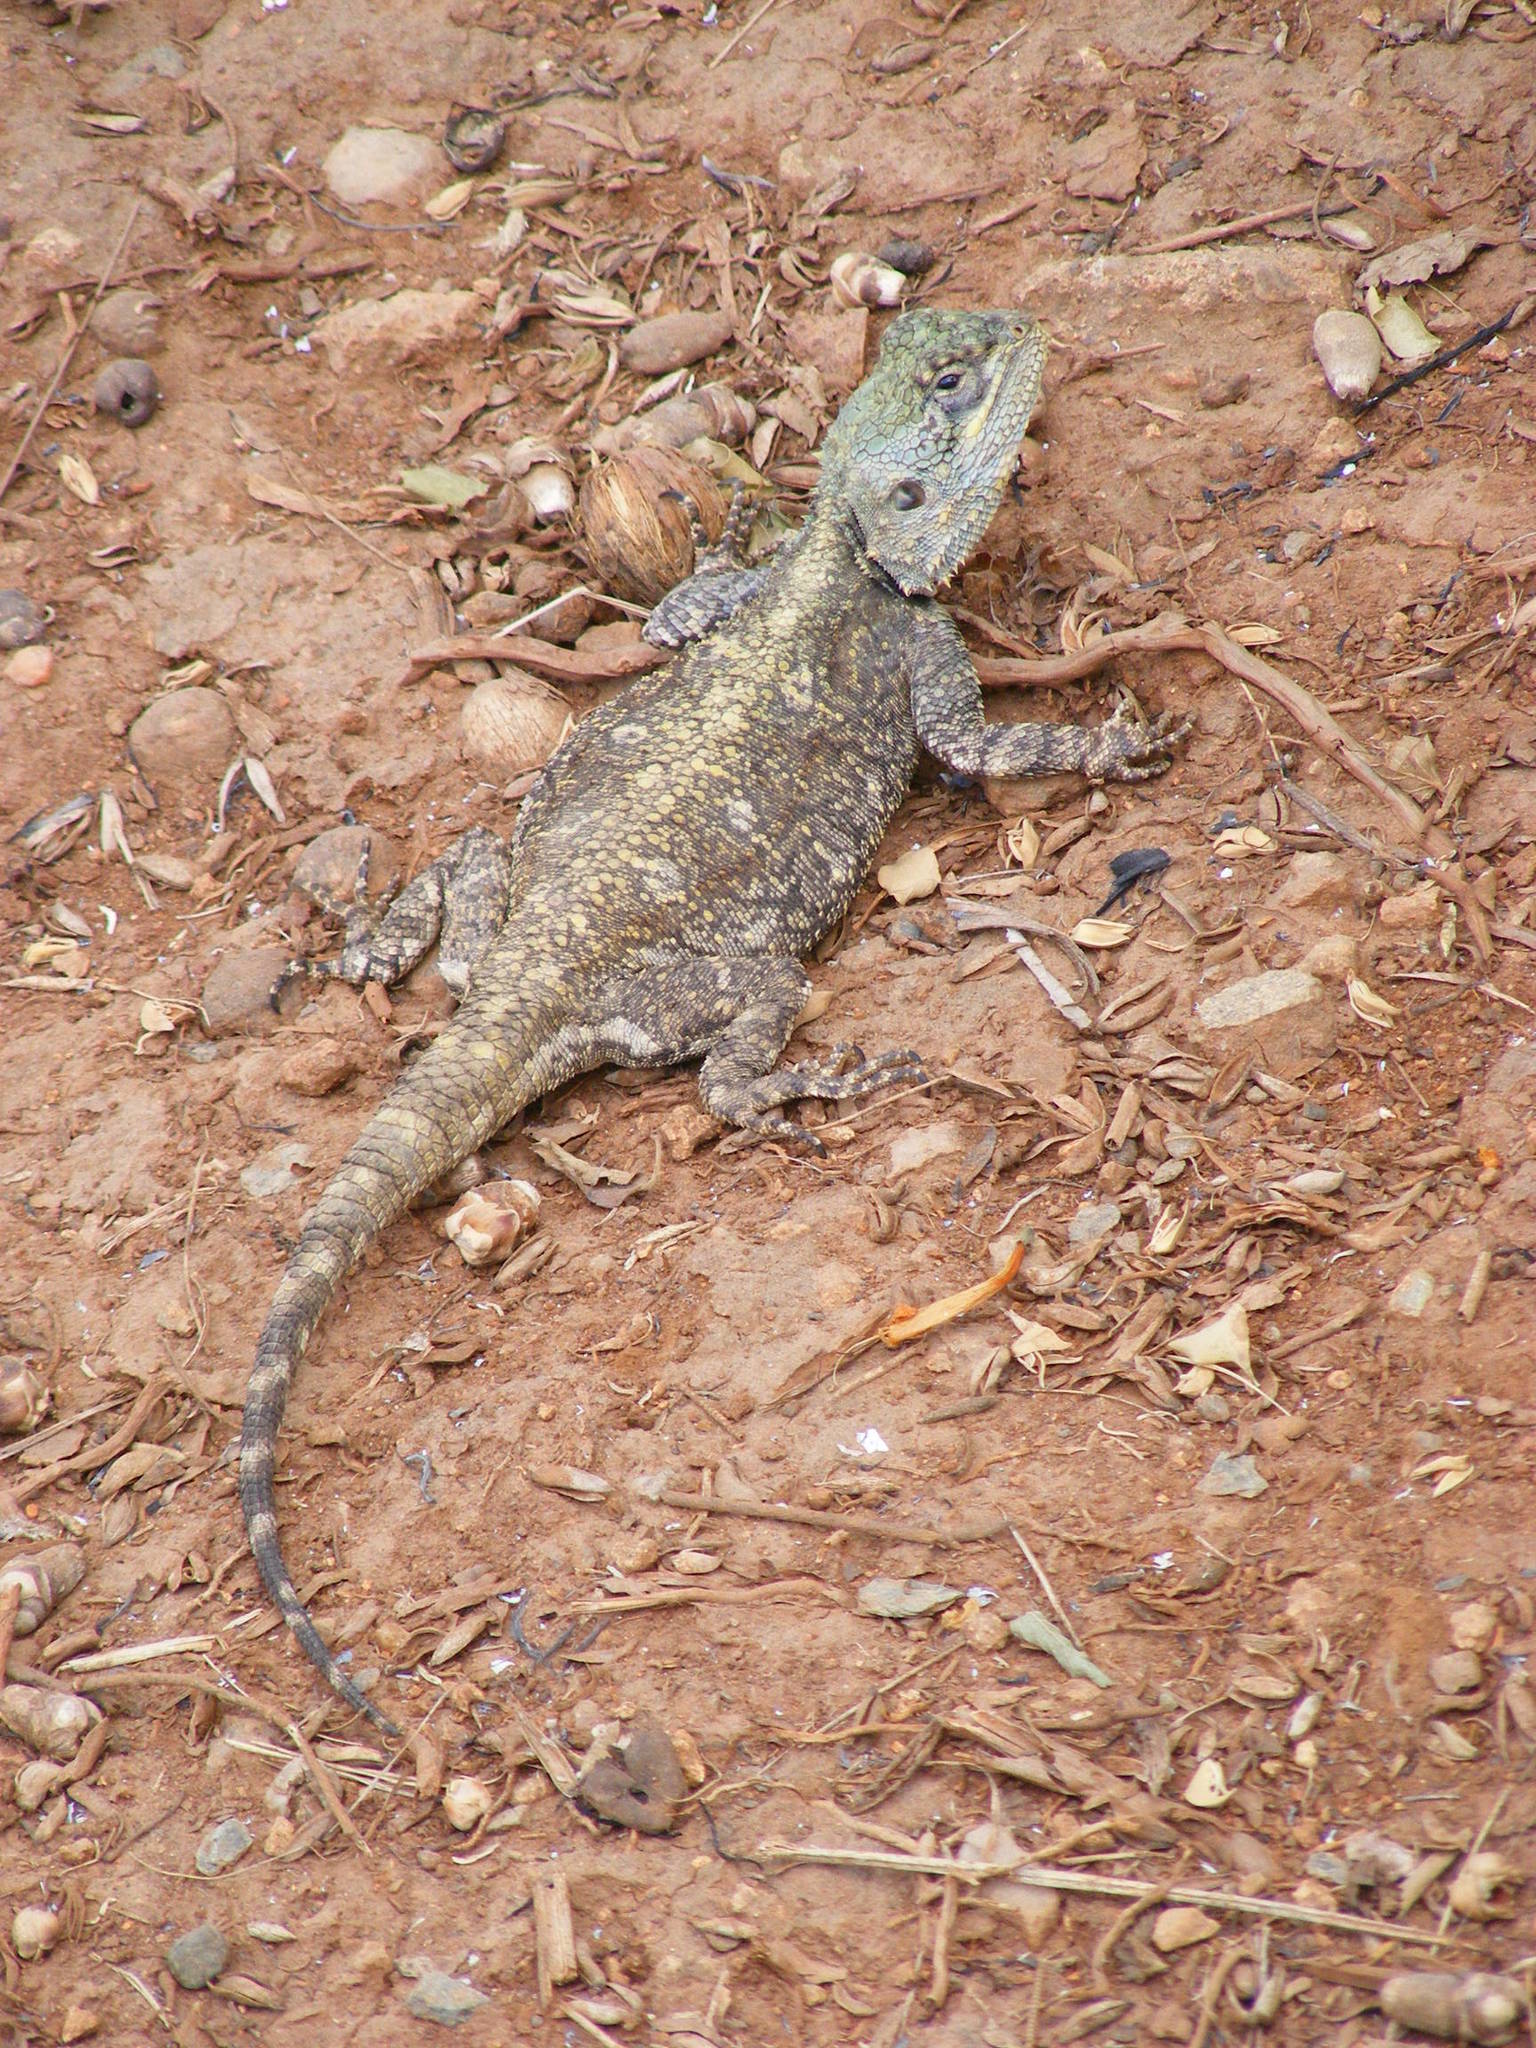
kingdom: Animalia
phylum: Chordata
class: Squamata
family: Agamidae
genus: Acanthocercus
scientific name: Acanthocercus atricollis
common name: Southern tree agama
